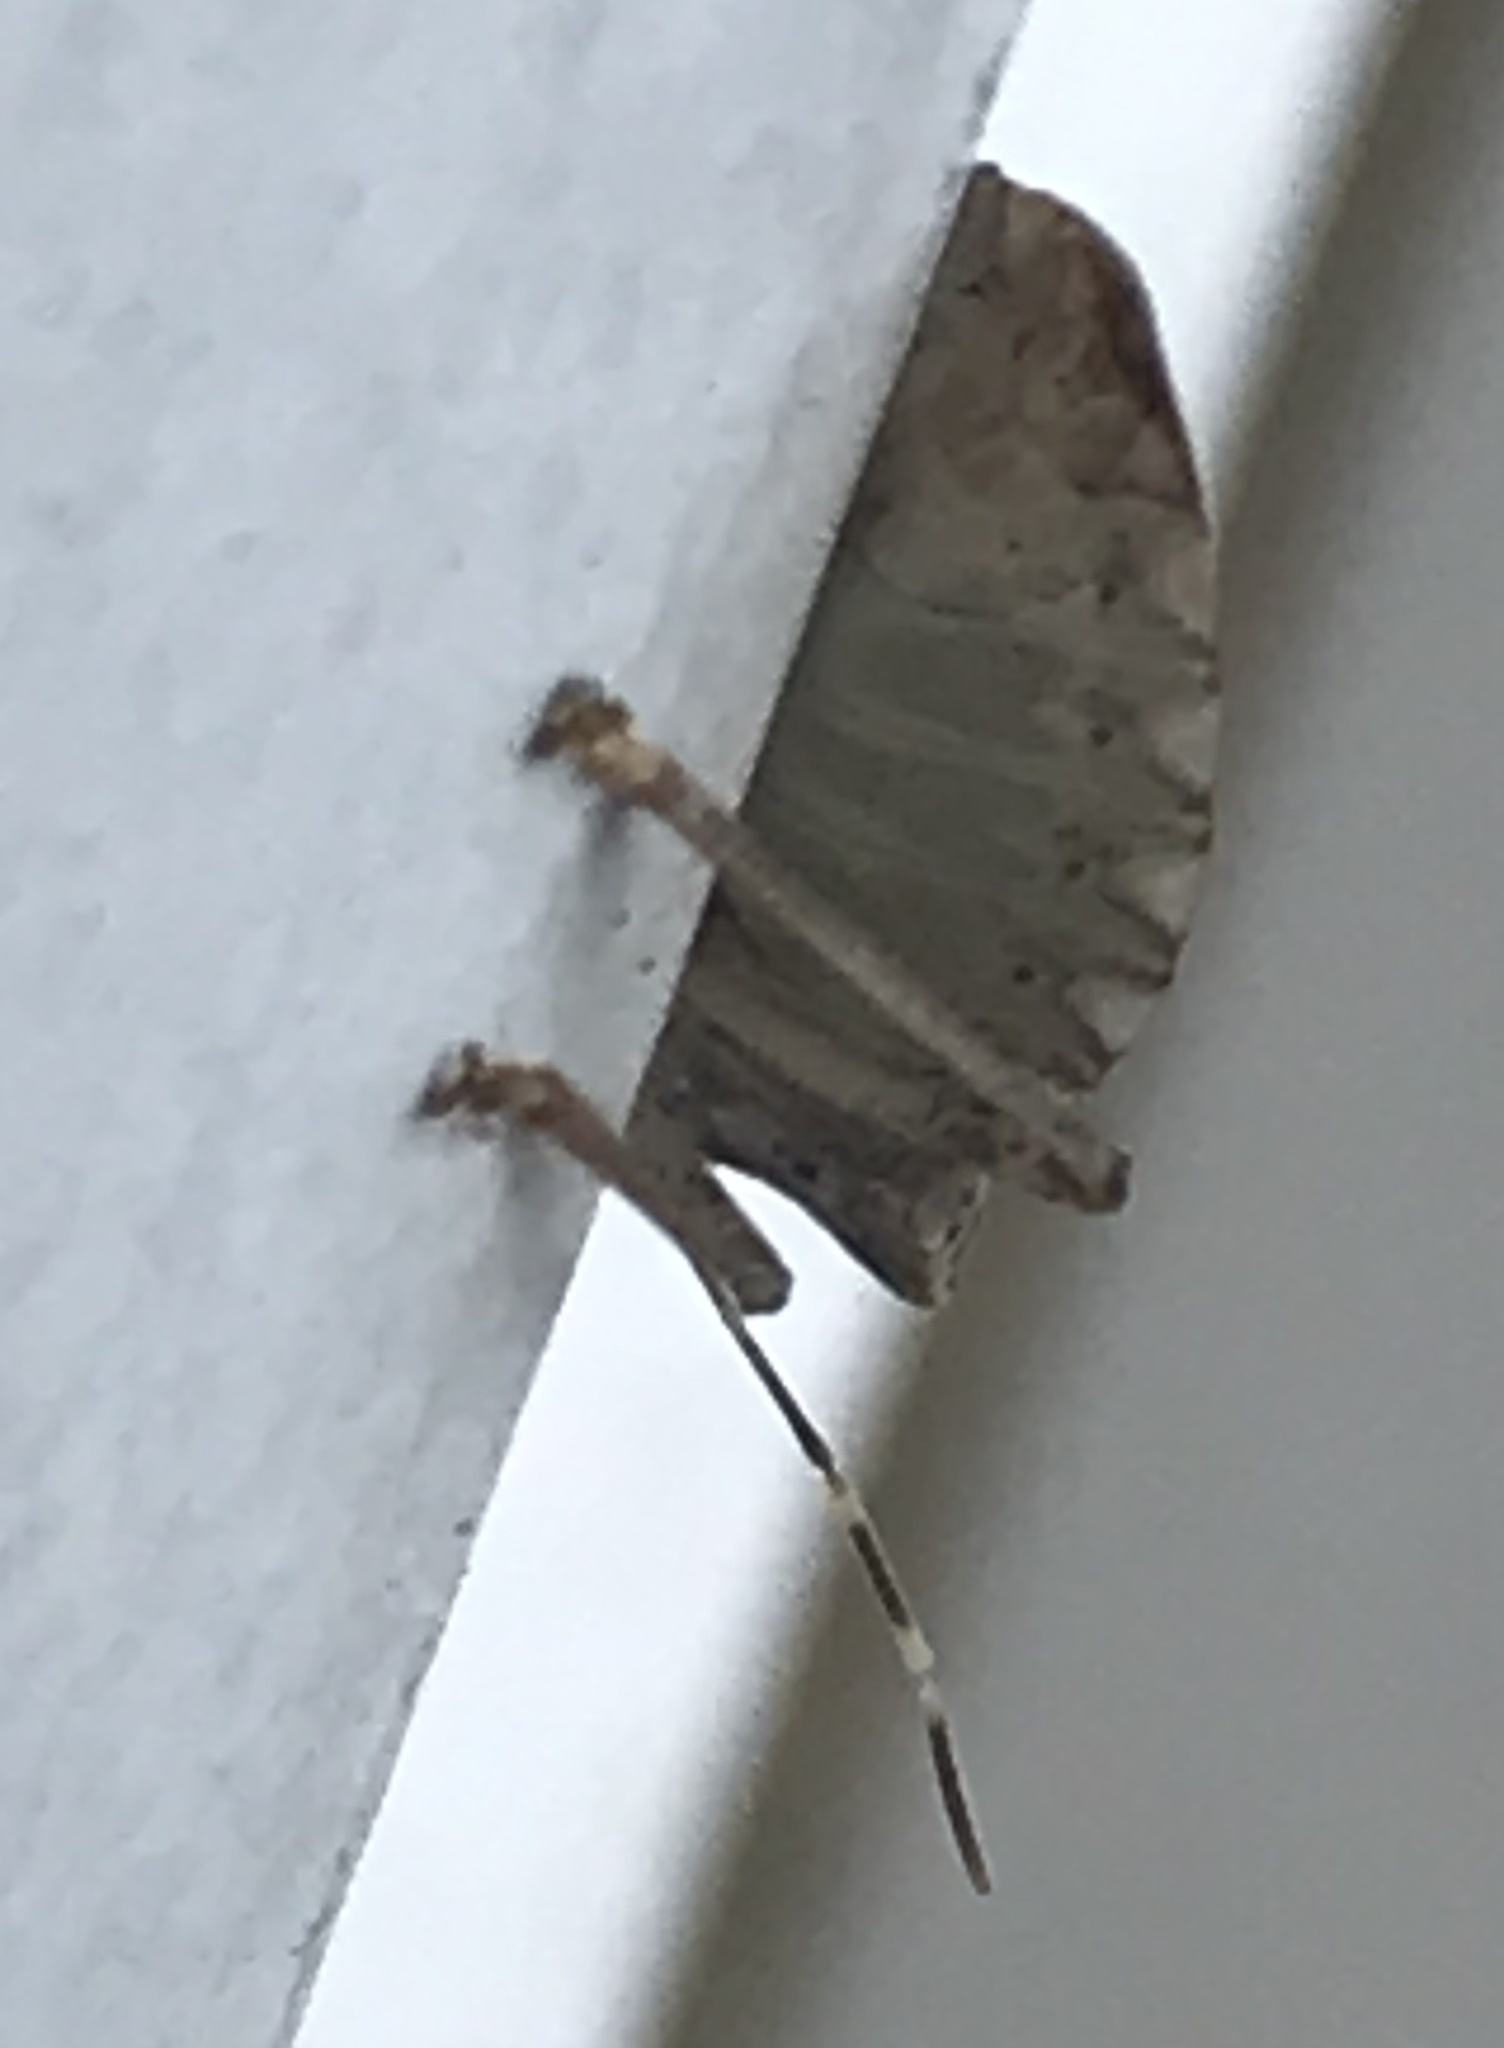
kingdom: Animalia
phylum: Arthropoda
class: Insecta
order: Hemiptera
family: Pentatomidae
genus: Halyomorpha
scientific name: Halyomorpha halys
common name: Brown marmorated stink bug
